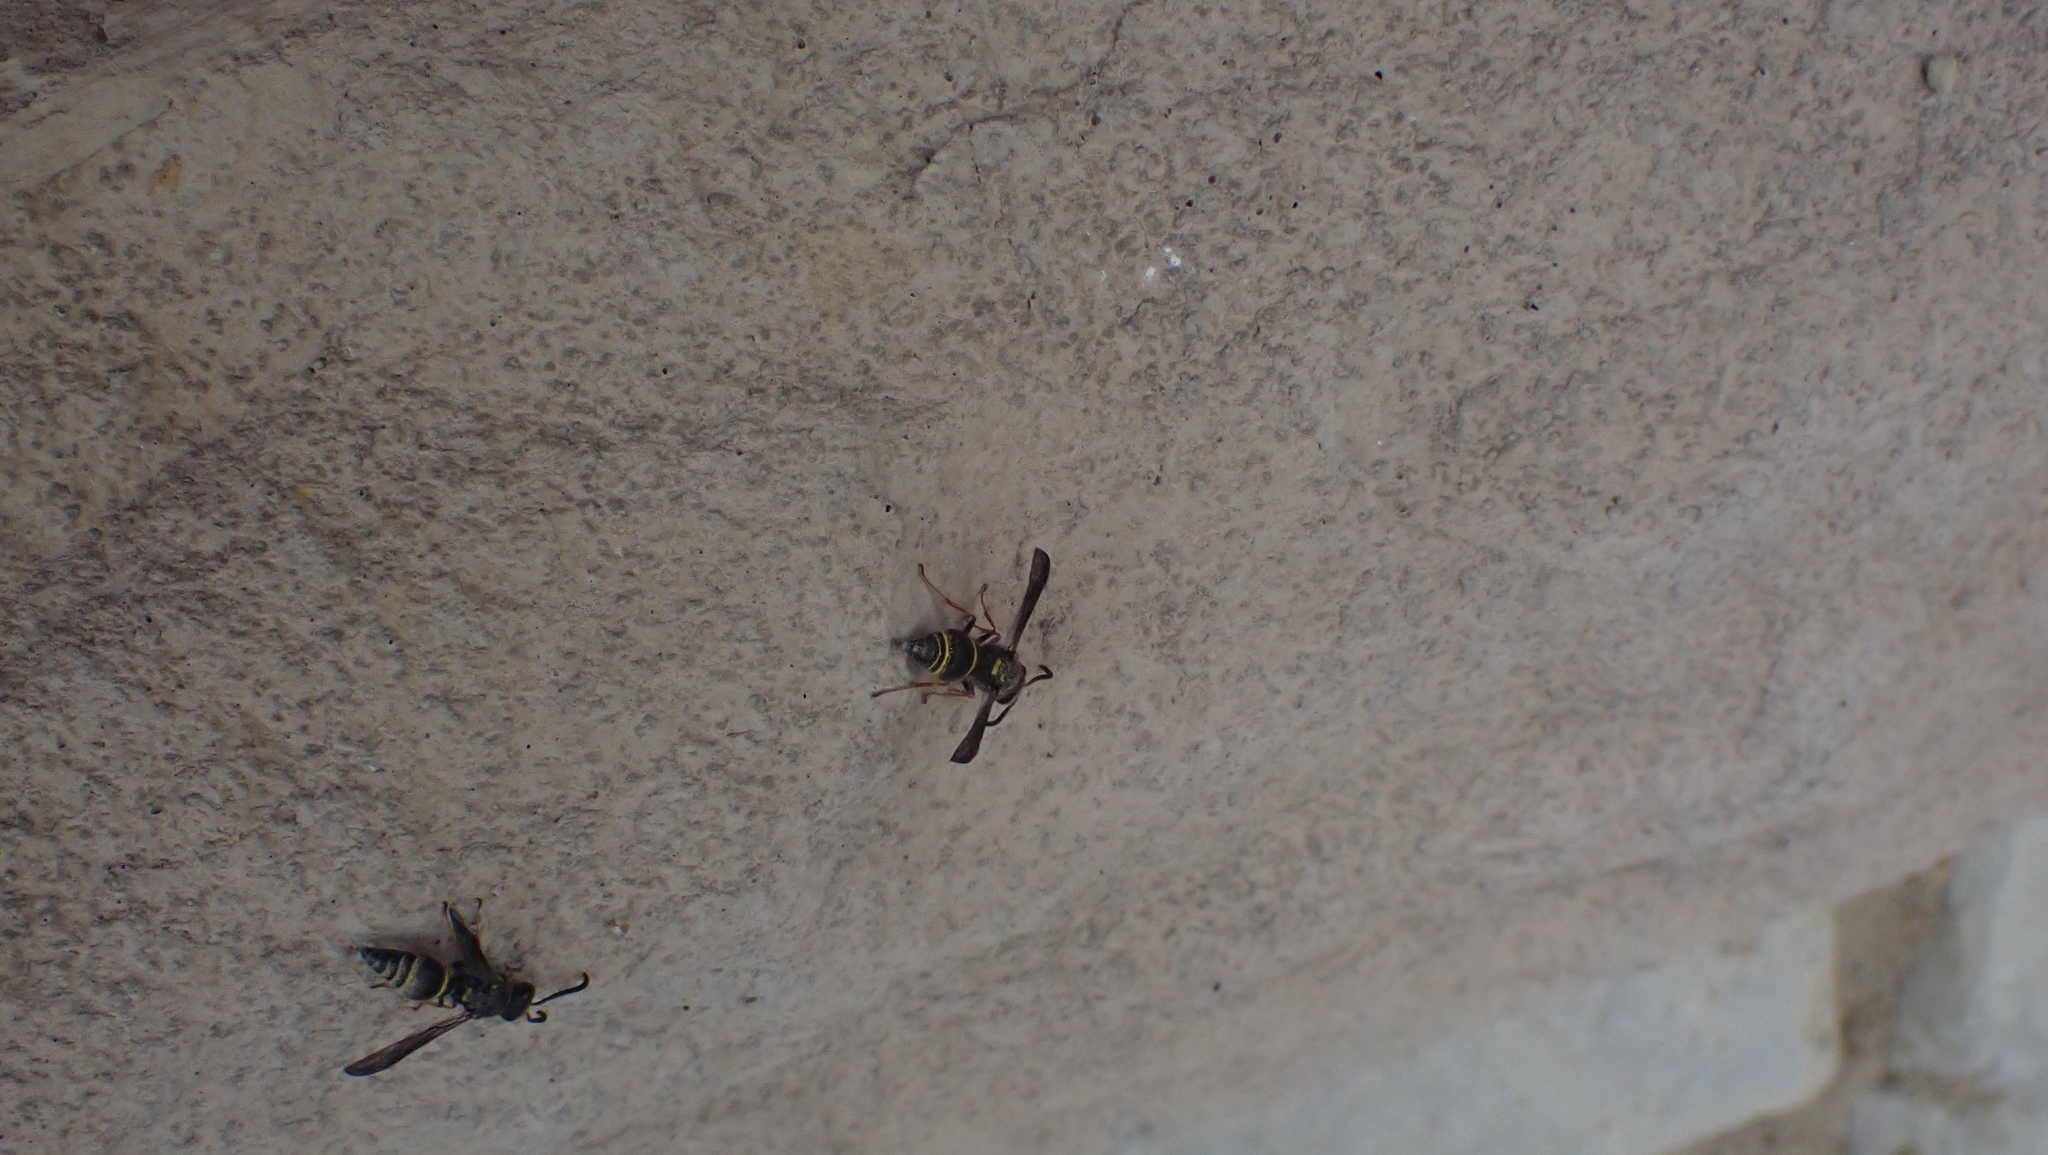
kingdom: Animalia
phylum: Arthropoda
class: Insecta
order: Hymenoptera
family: Vespidae
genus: Ancistrocerus
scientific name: Ancistrocerus campestris
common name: Smiling mason wasp
